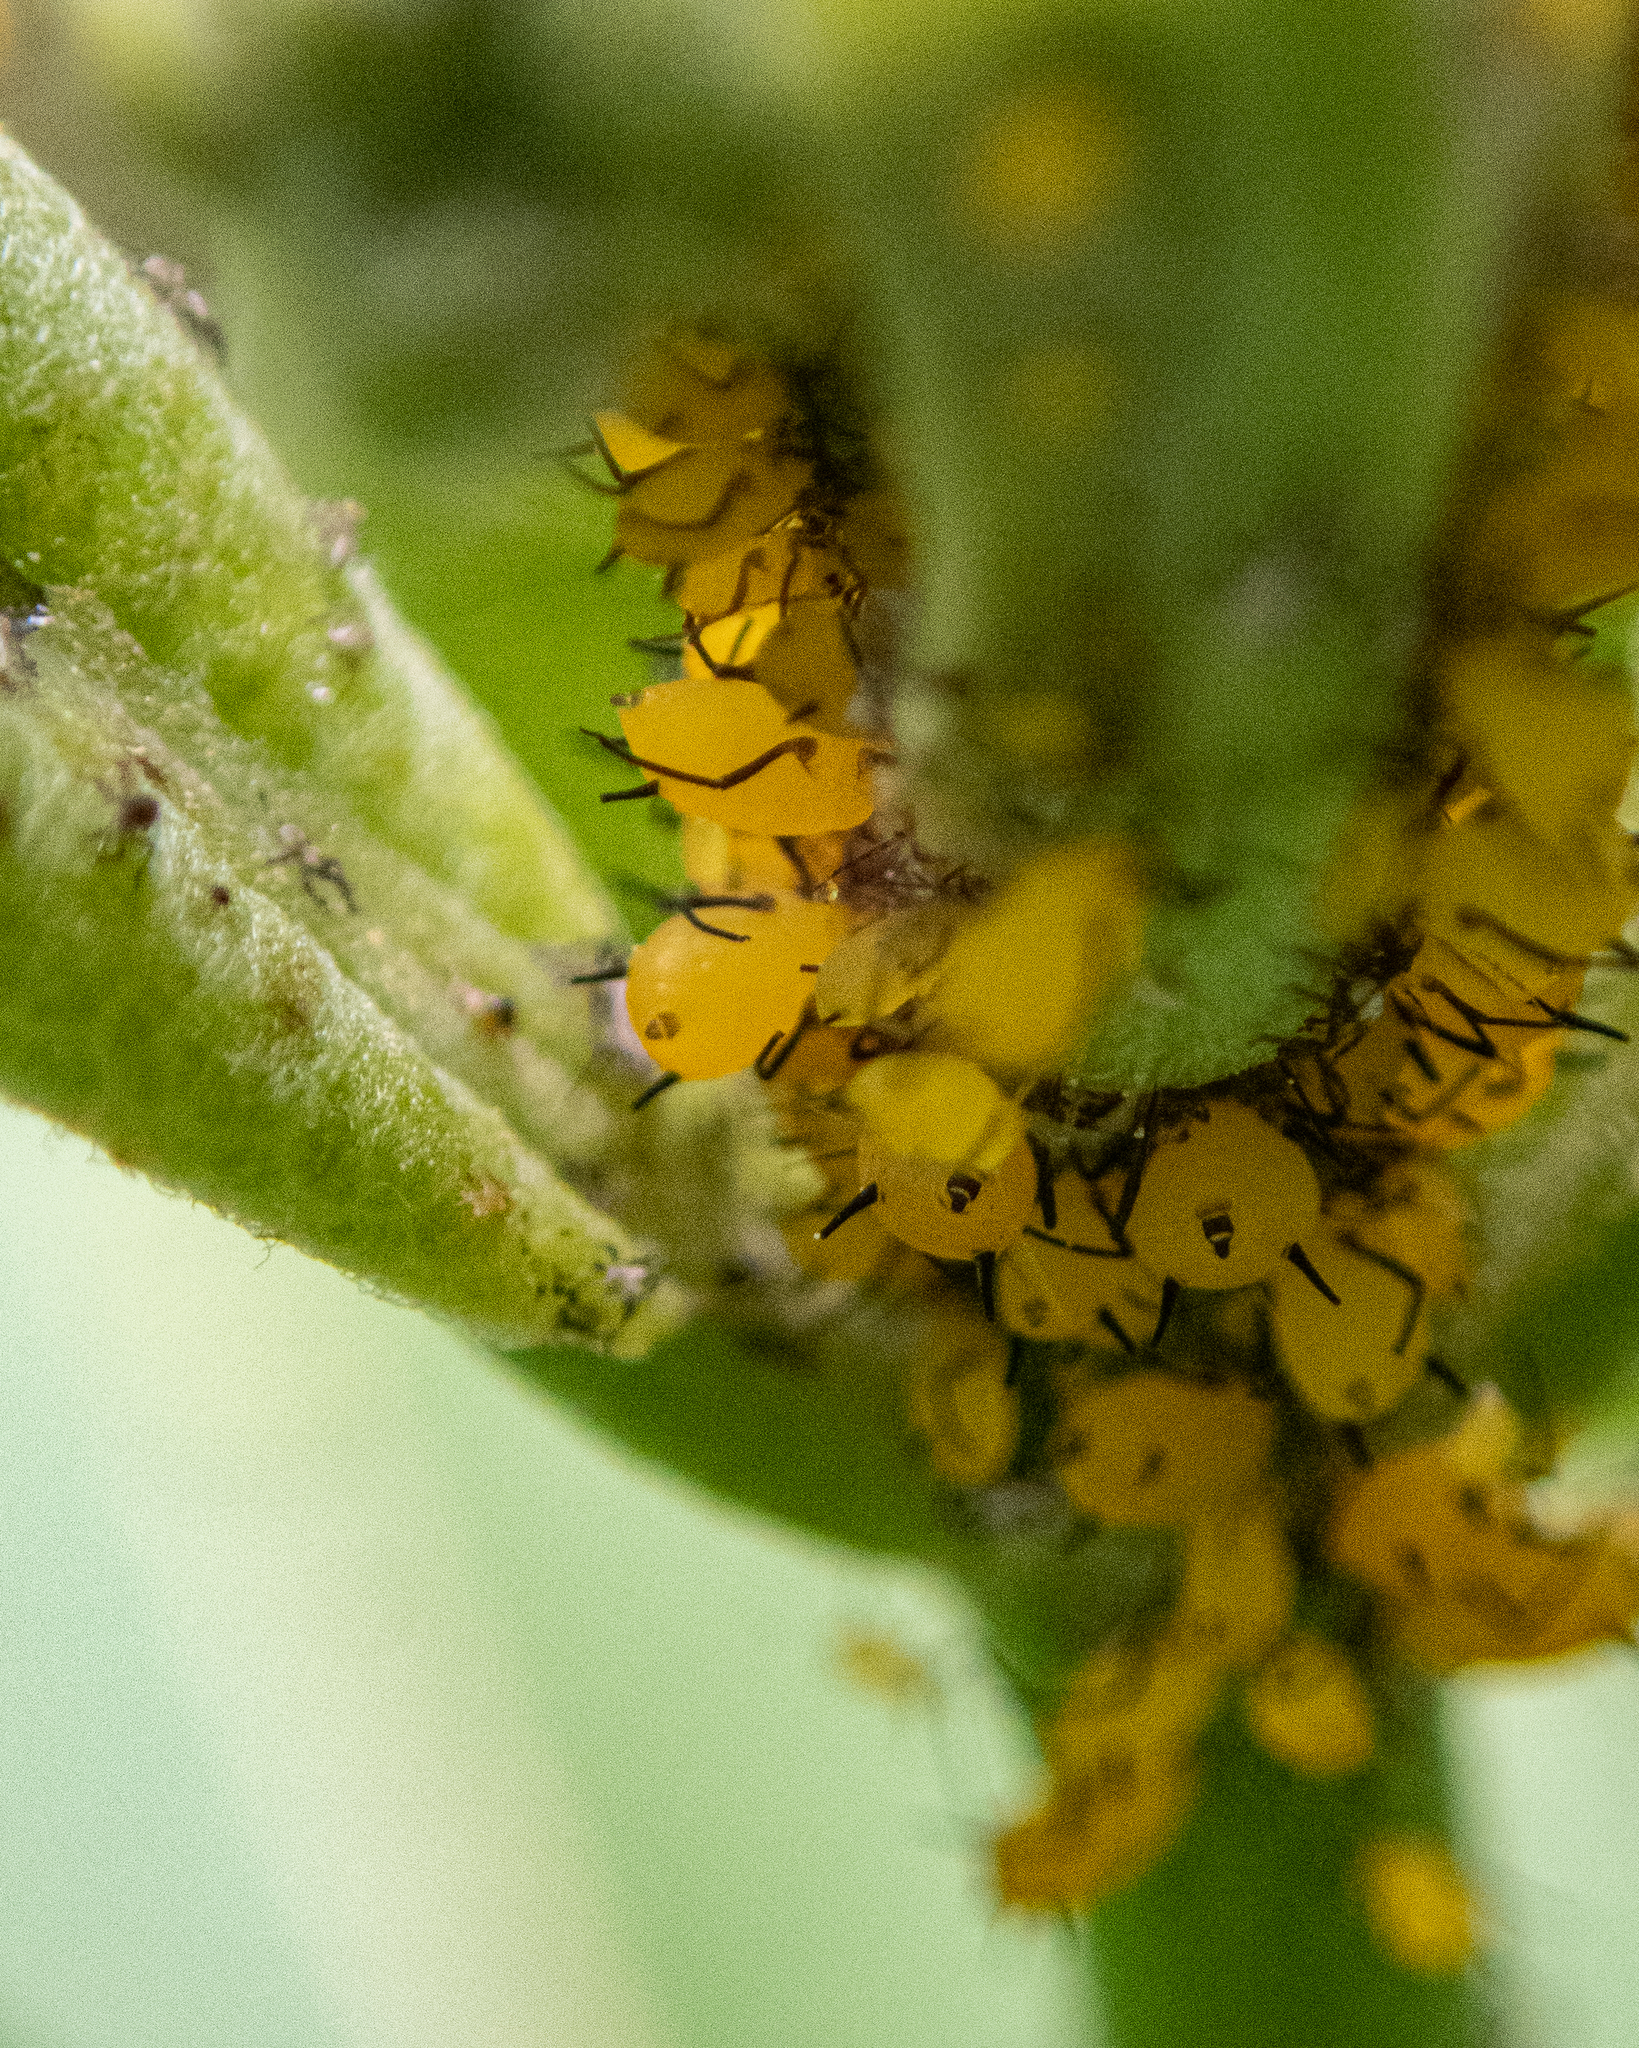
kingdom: Animalia
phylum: Arthropoda
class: Insecta
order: Hemiptera
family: Aphididae
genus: Aphis
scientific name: Aphis nerii
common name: Oleander aphid
